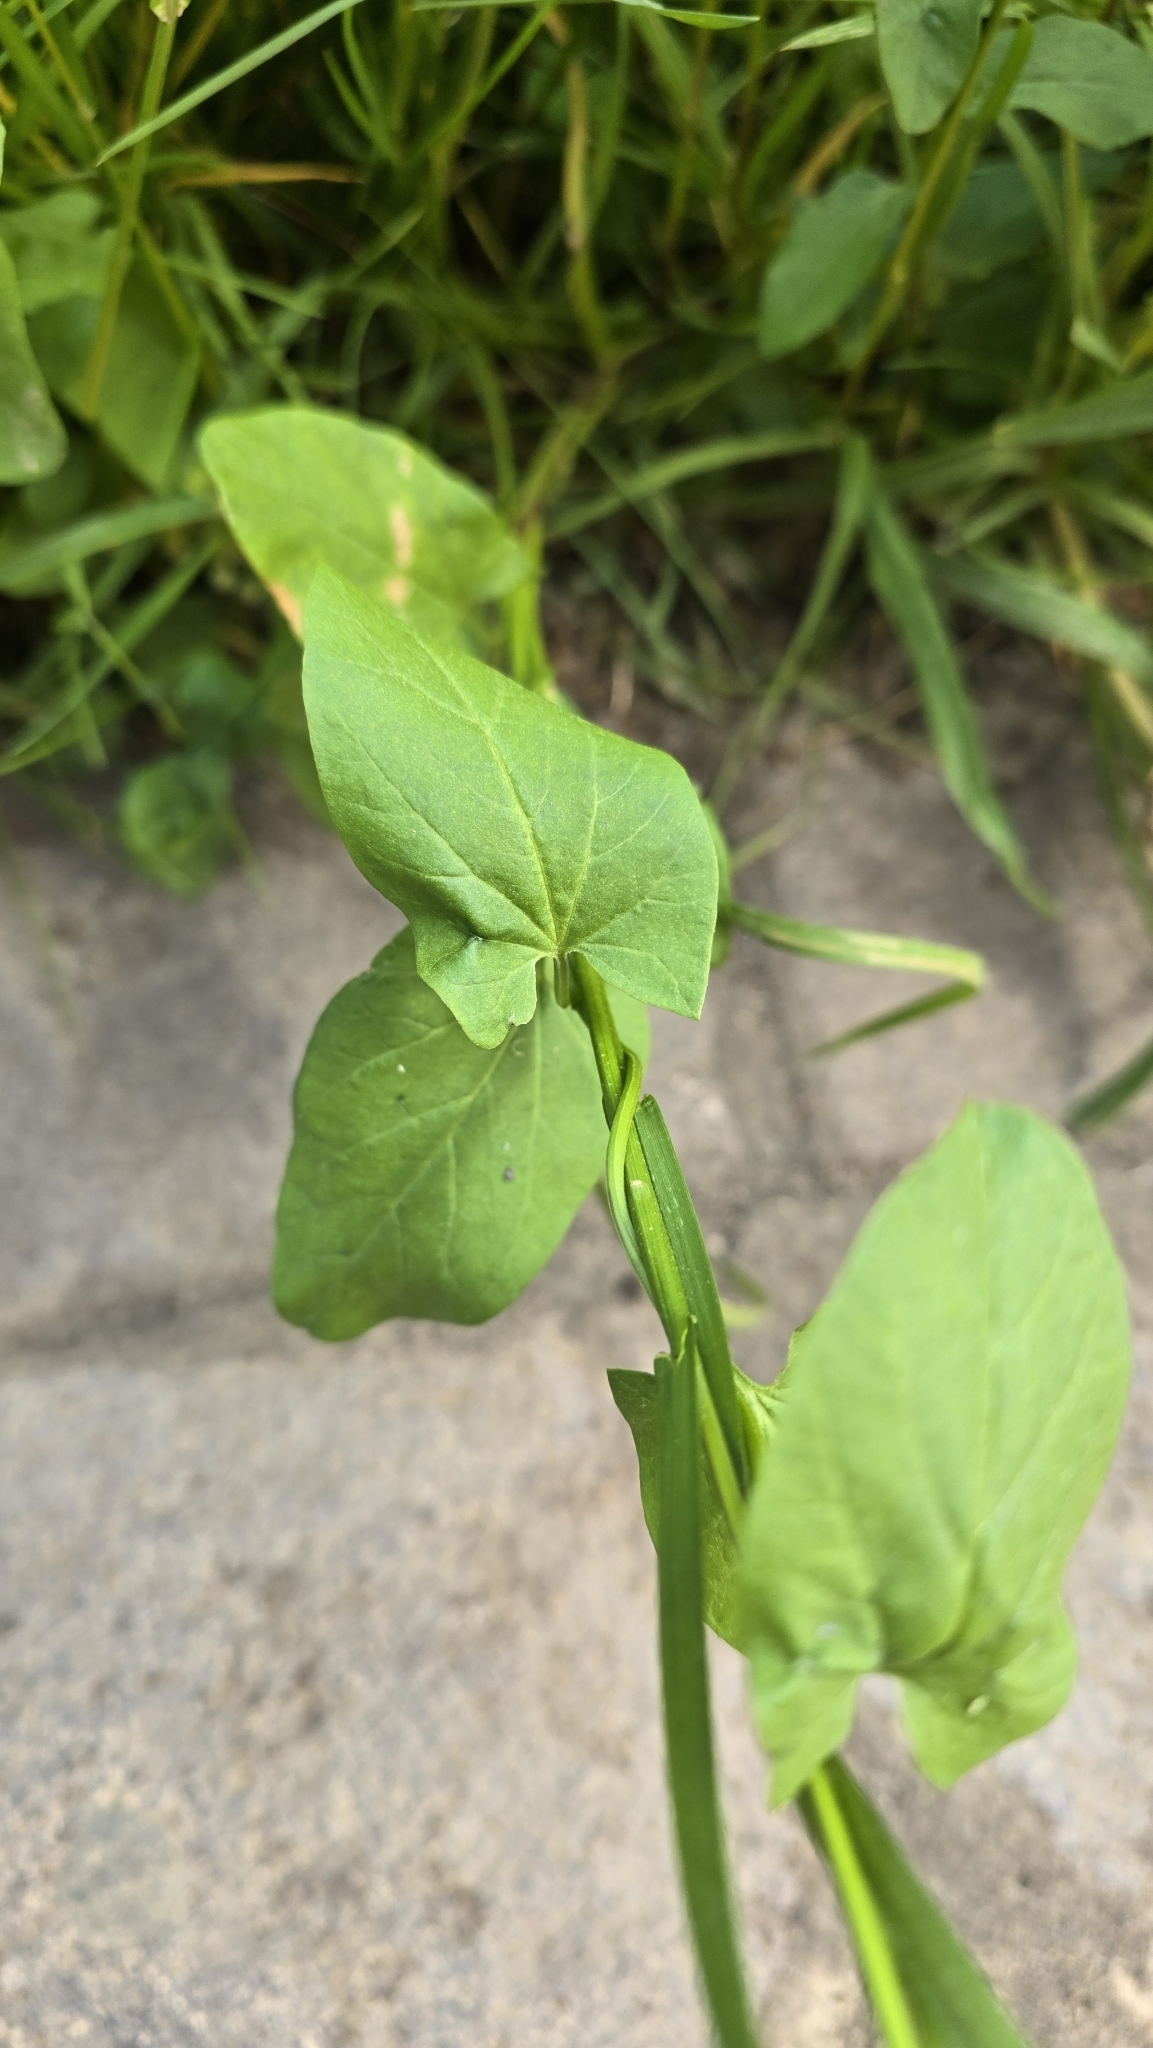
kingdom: Plantae
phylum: Tracheophyta
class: Magnoliopsida
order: Solanales
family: Convolvulaceae
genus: Calystegia
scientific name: Calystegia sepium
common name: Hedge bindweed
